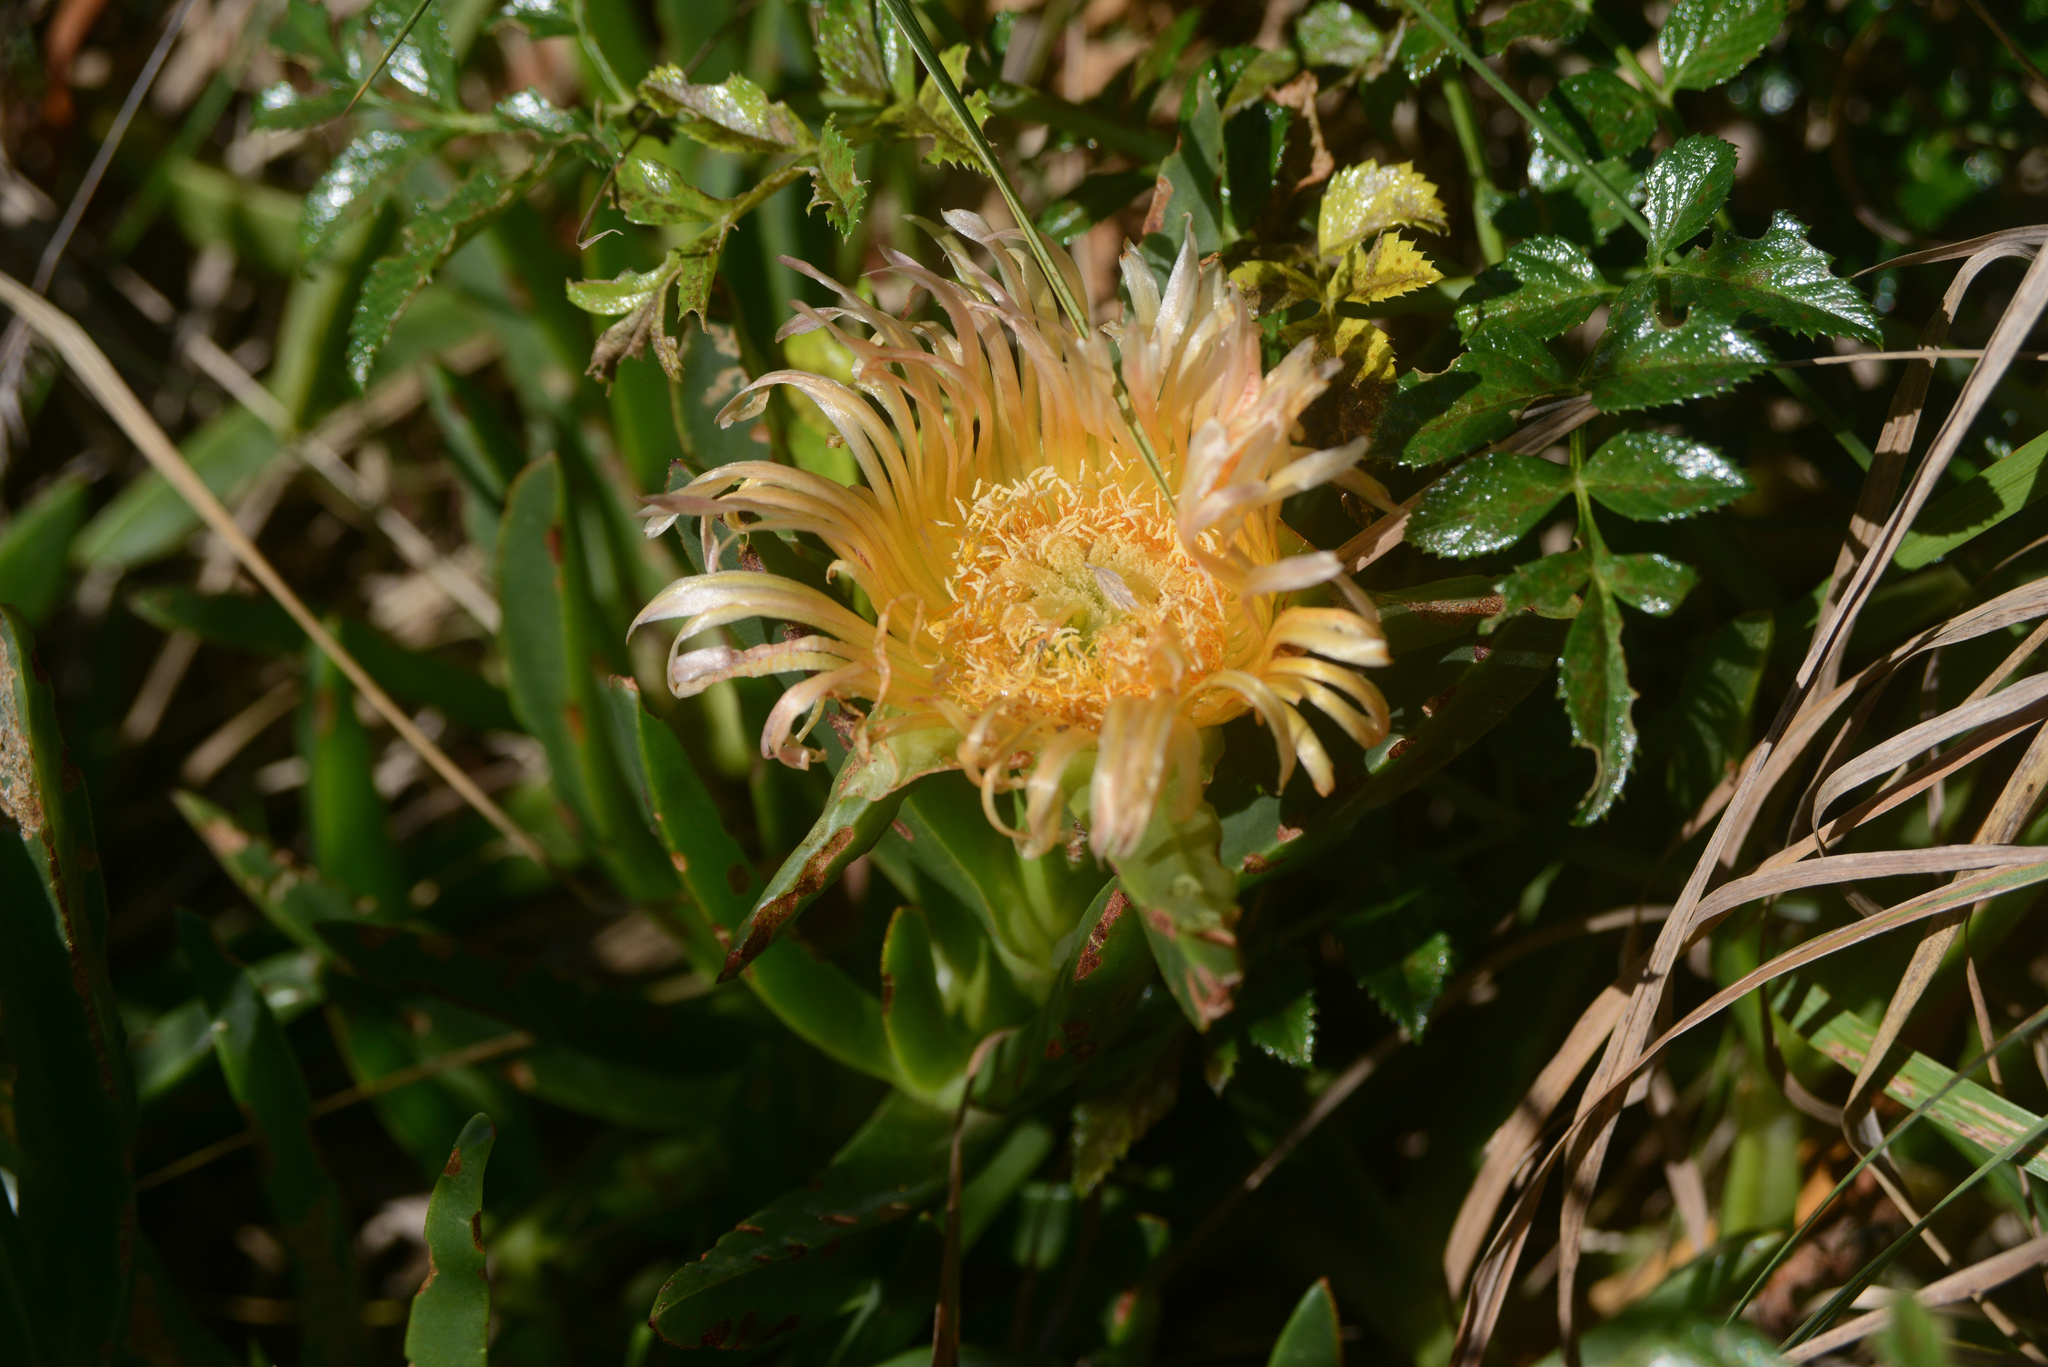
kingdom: Plantae
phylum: Tracheophyta
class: Magnoliopsida
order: Caryophyllales
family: Aizoaceae
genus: Carpobrotus
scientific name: Carpobrotus edulis
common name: Hottentot-fig
